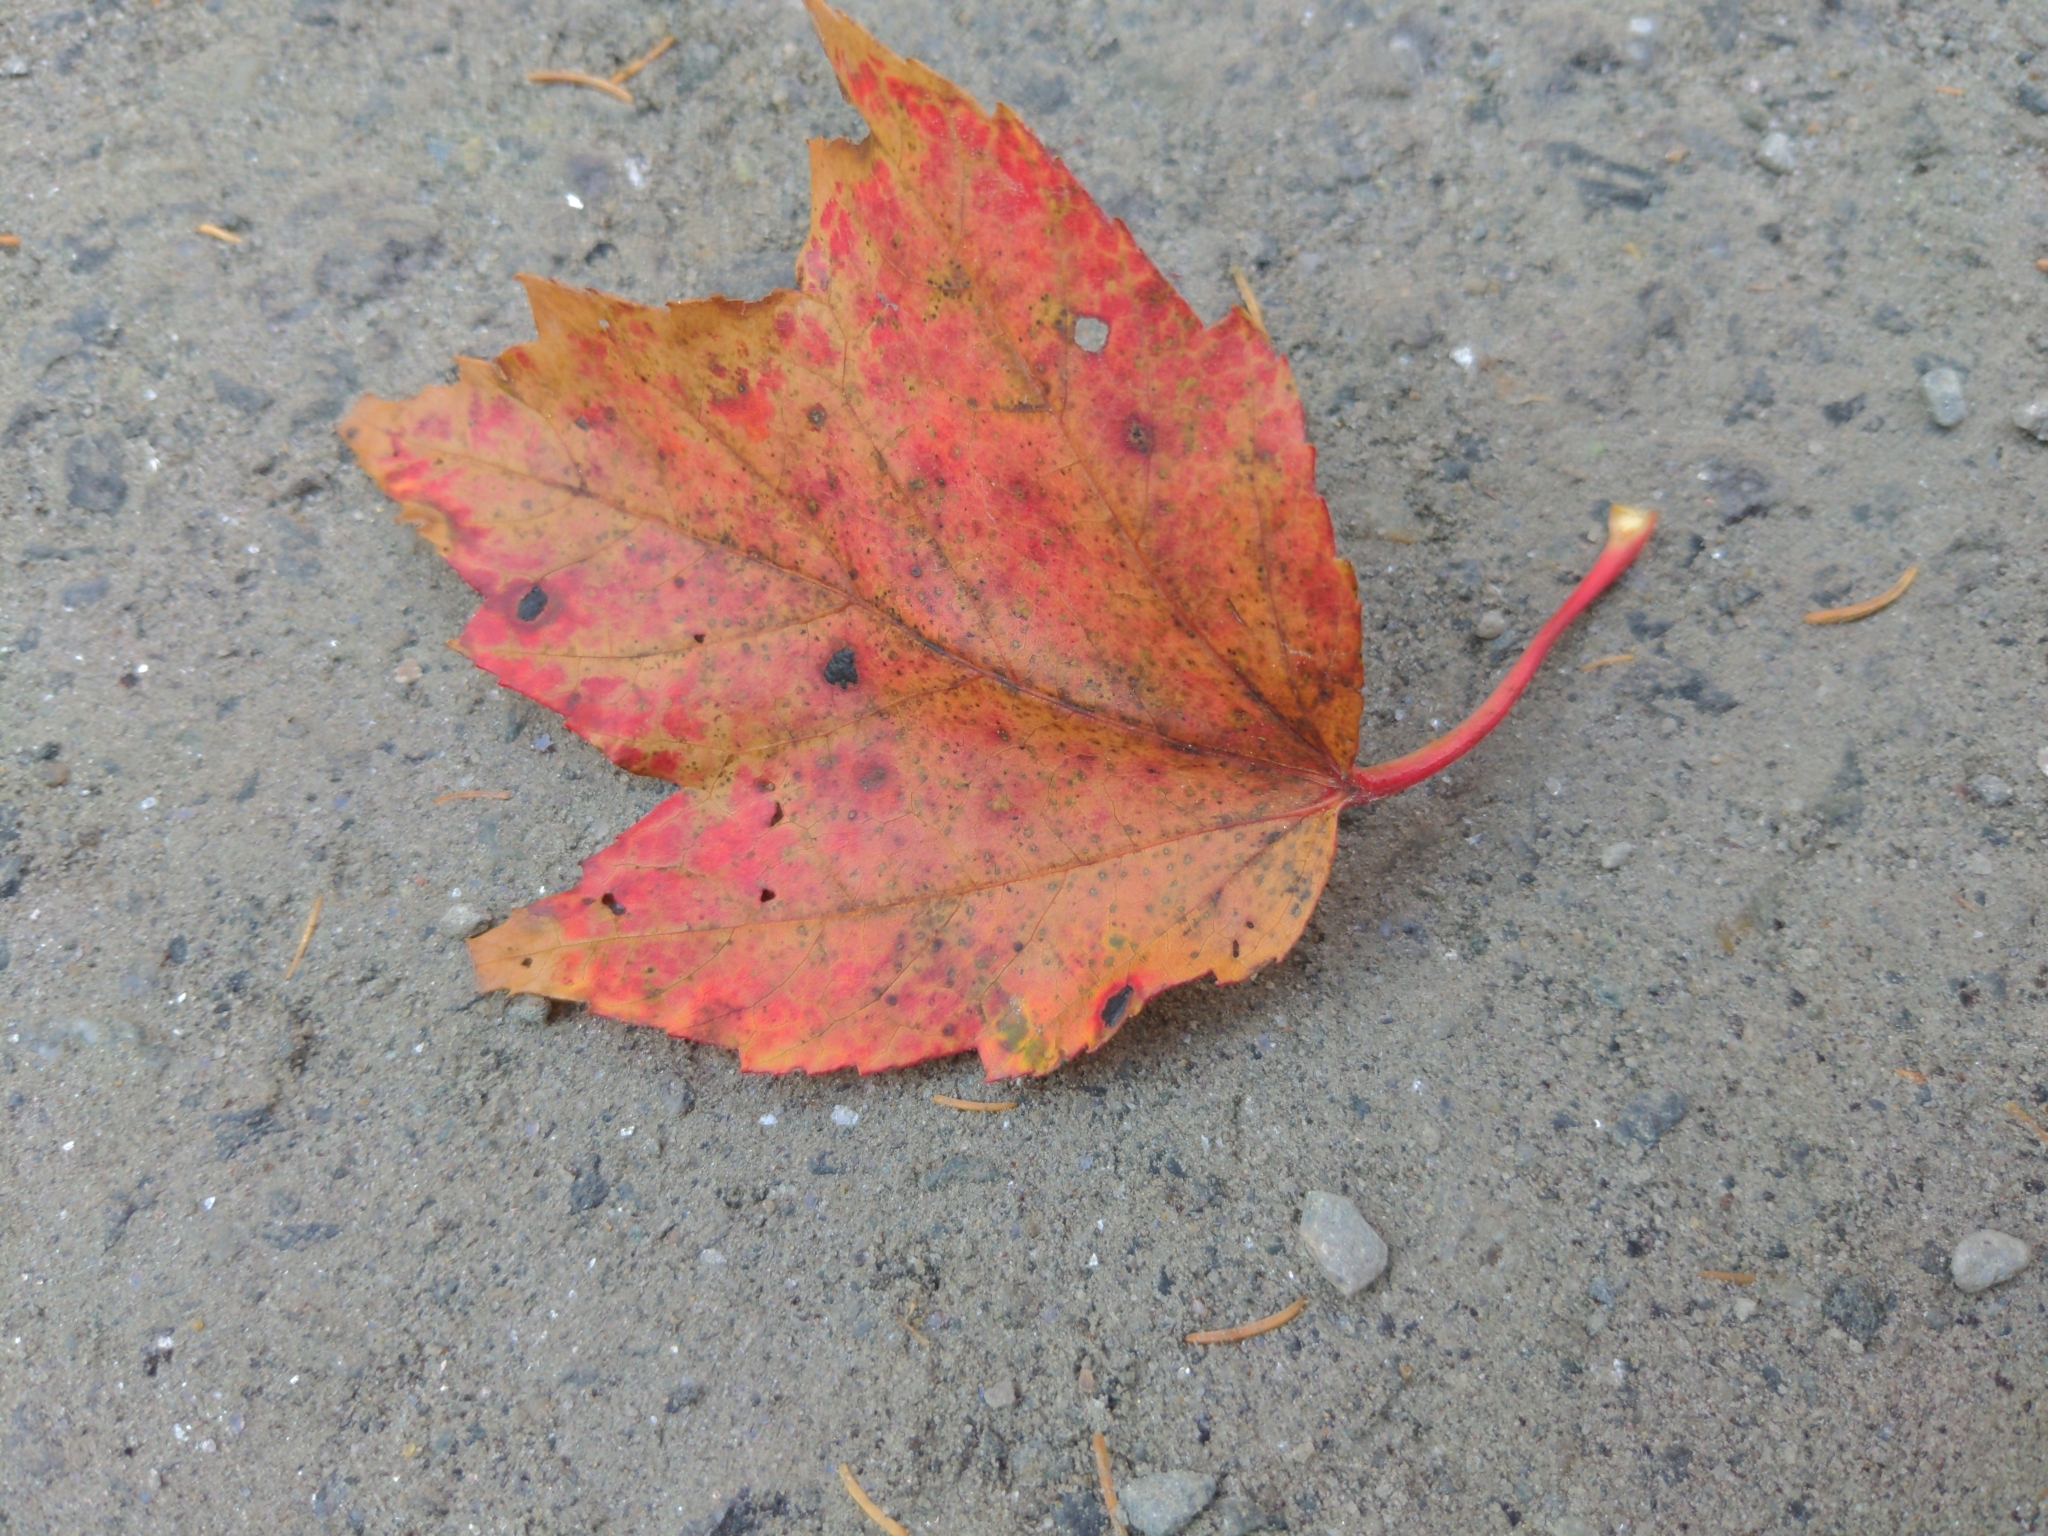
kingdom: Plantae
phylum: Tracheophyta
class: Magnoliopsida
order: Sapindales
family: Sapindaceae
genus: Acer
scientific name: Acer rubrum
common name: Red maple
